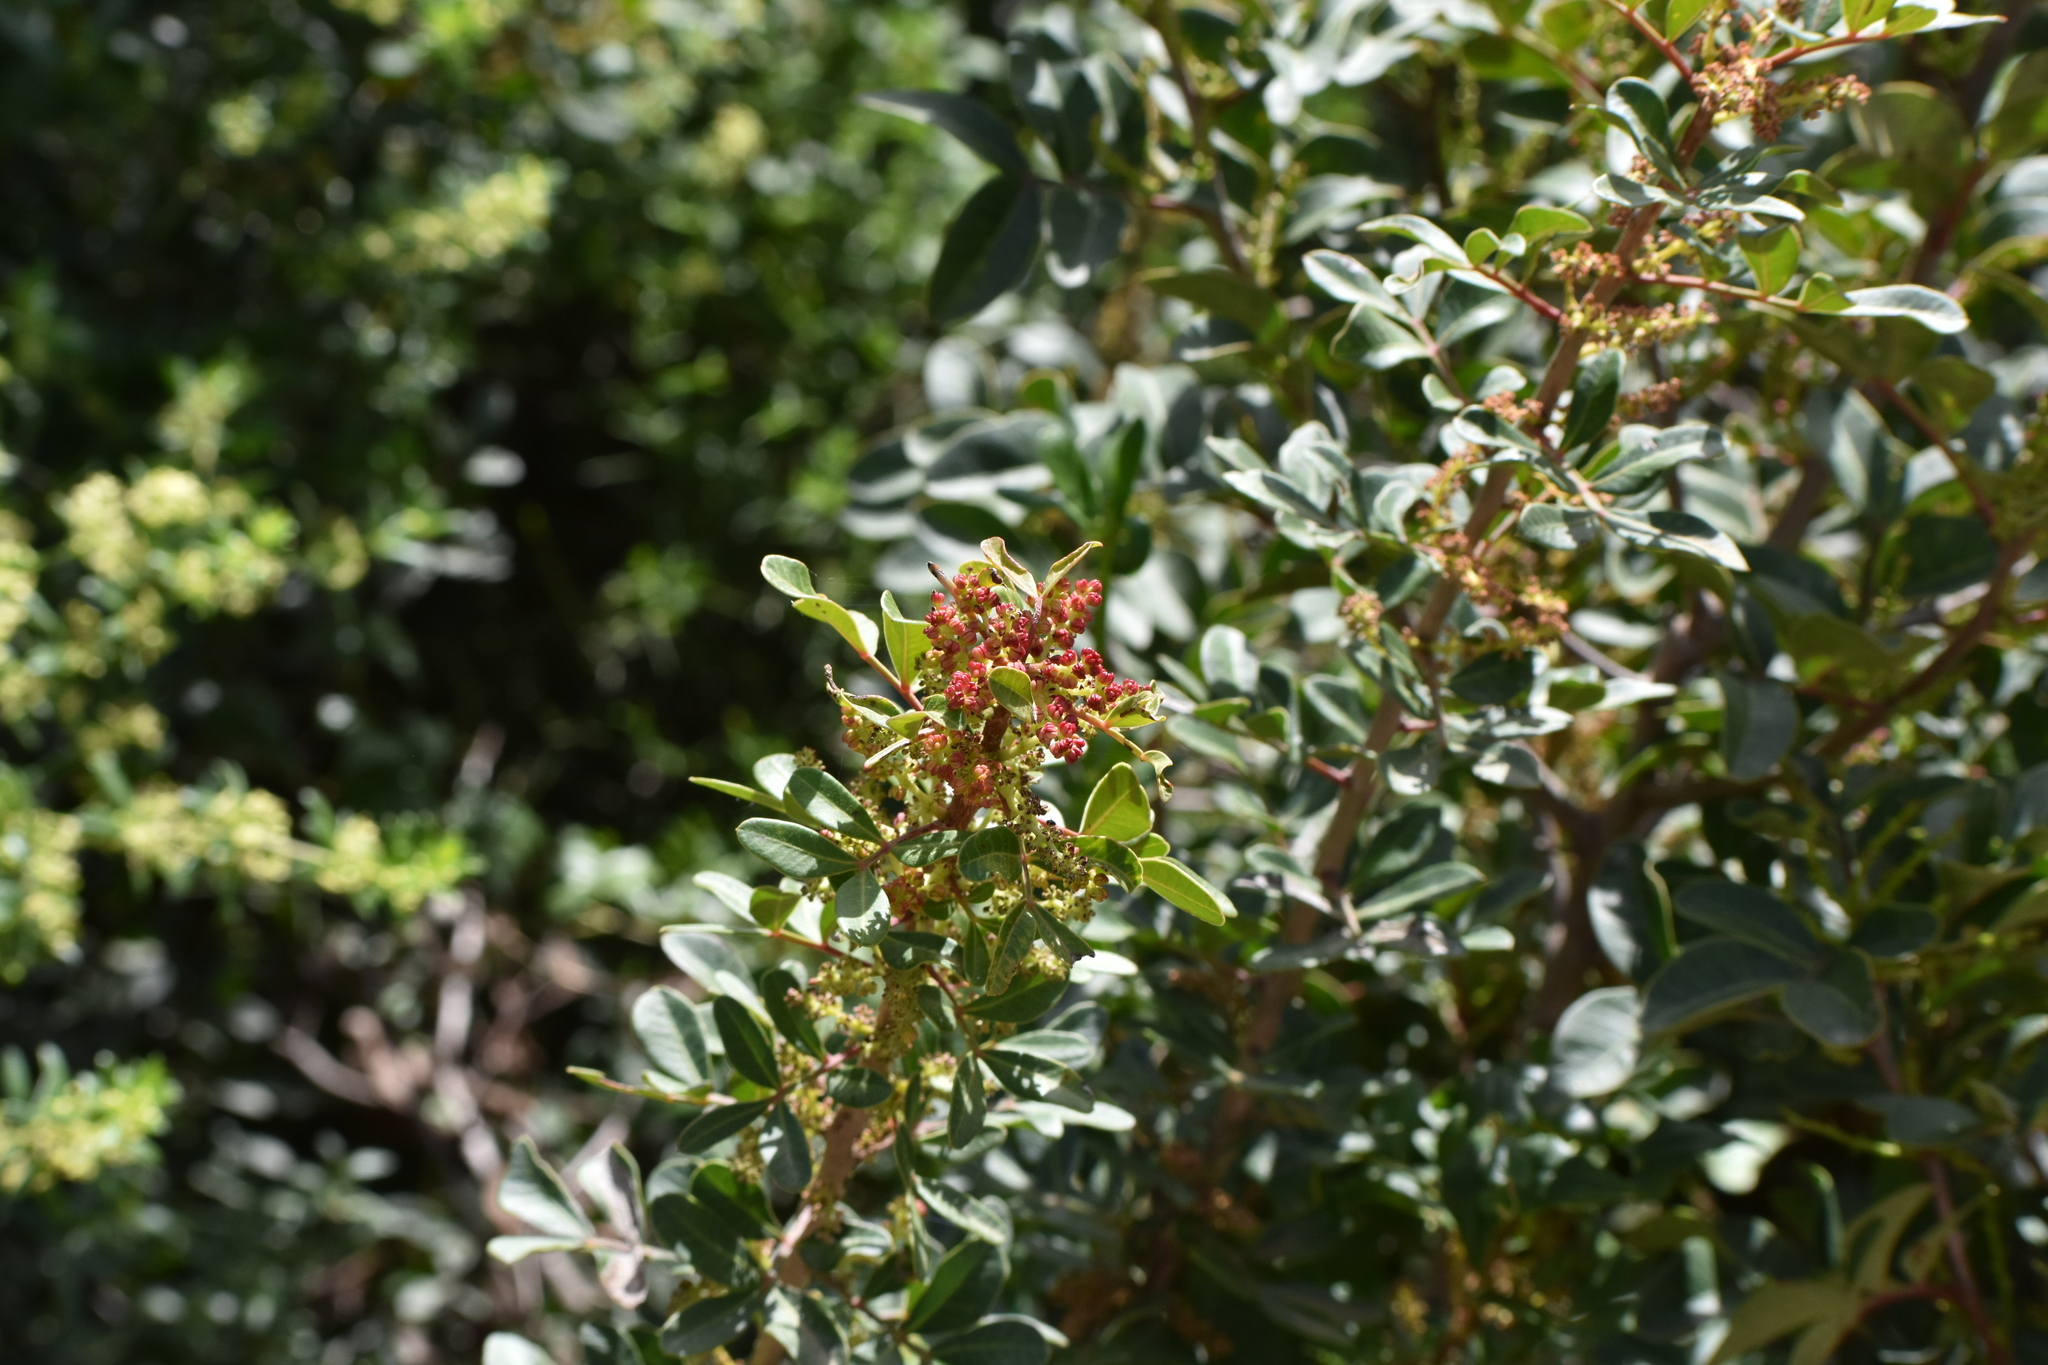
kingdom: Plantae
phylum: Tracheophyta
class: Magnoliopsida
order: Sapindales
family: Anacardiaceae
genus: Pistacia
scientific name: Pistacia lentiscus
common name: Lentisk
